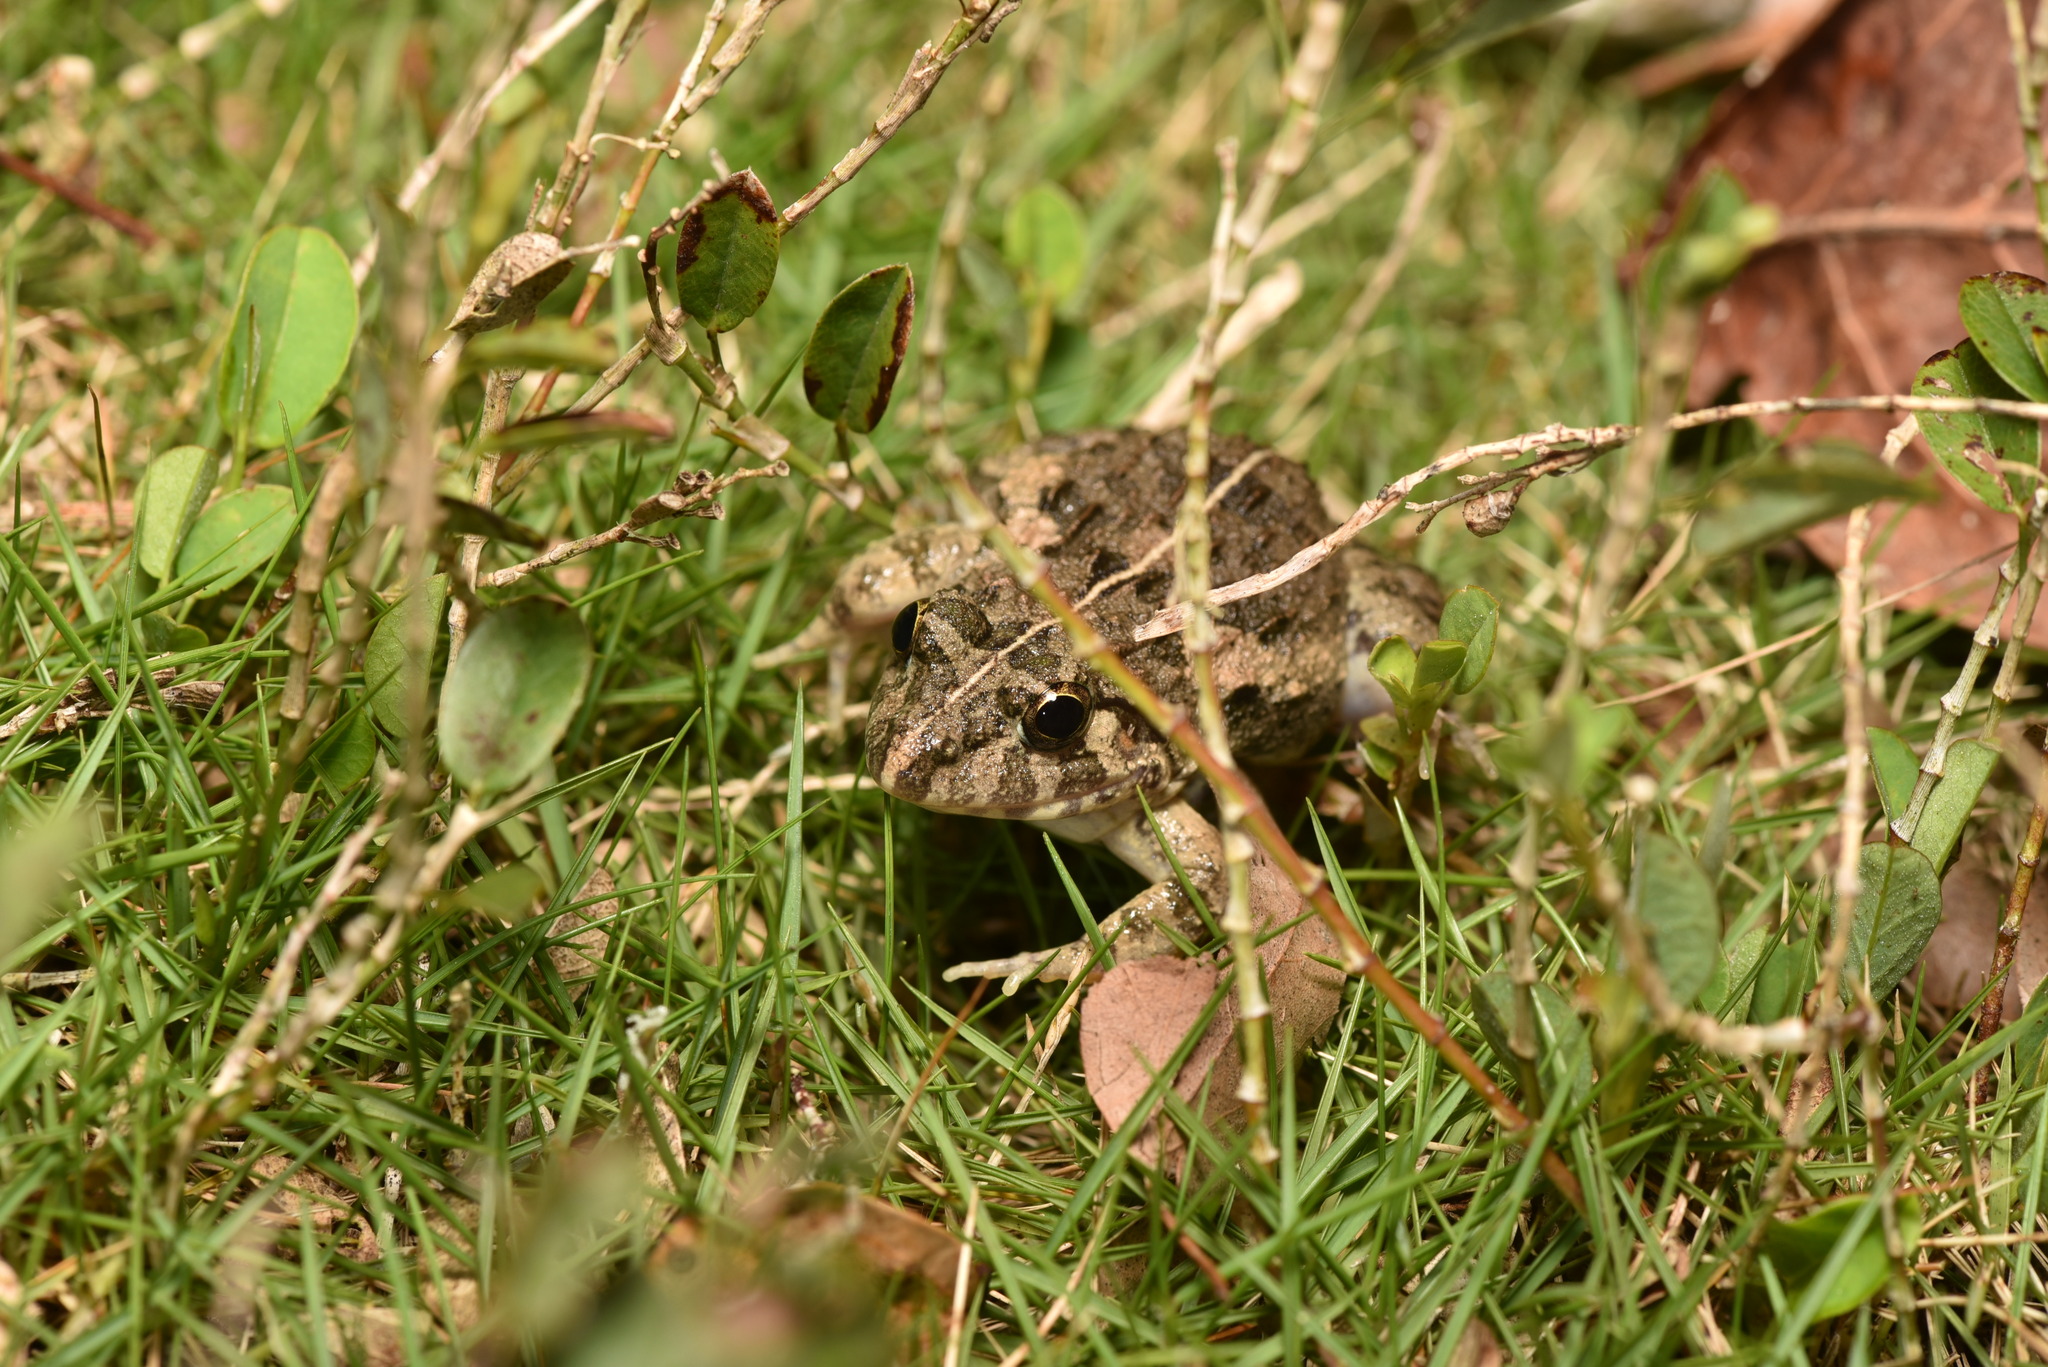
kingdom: Animalia
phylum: Chordata
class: Amphibia
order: Anura
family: Dicroglossidae
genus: Fejervarya
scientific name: Fejervarya limnocharis
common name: Asian grass frog/common pond frog/field frog/grass frog/indian rice frog
